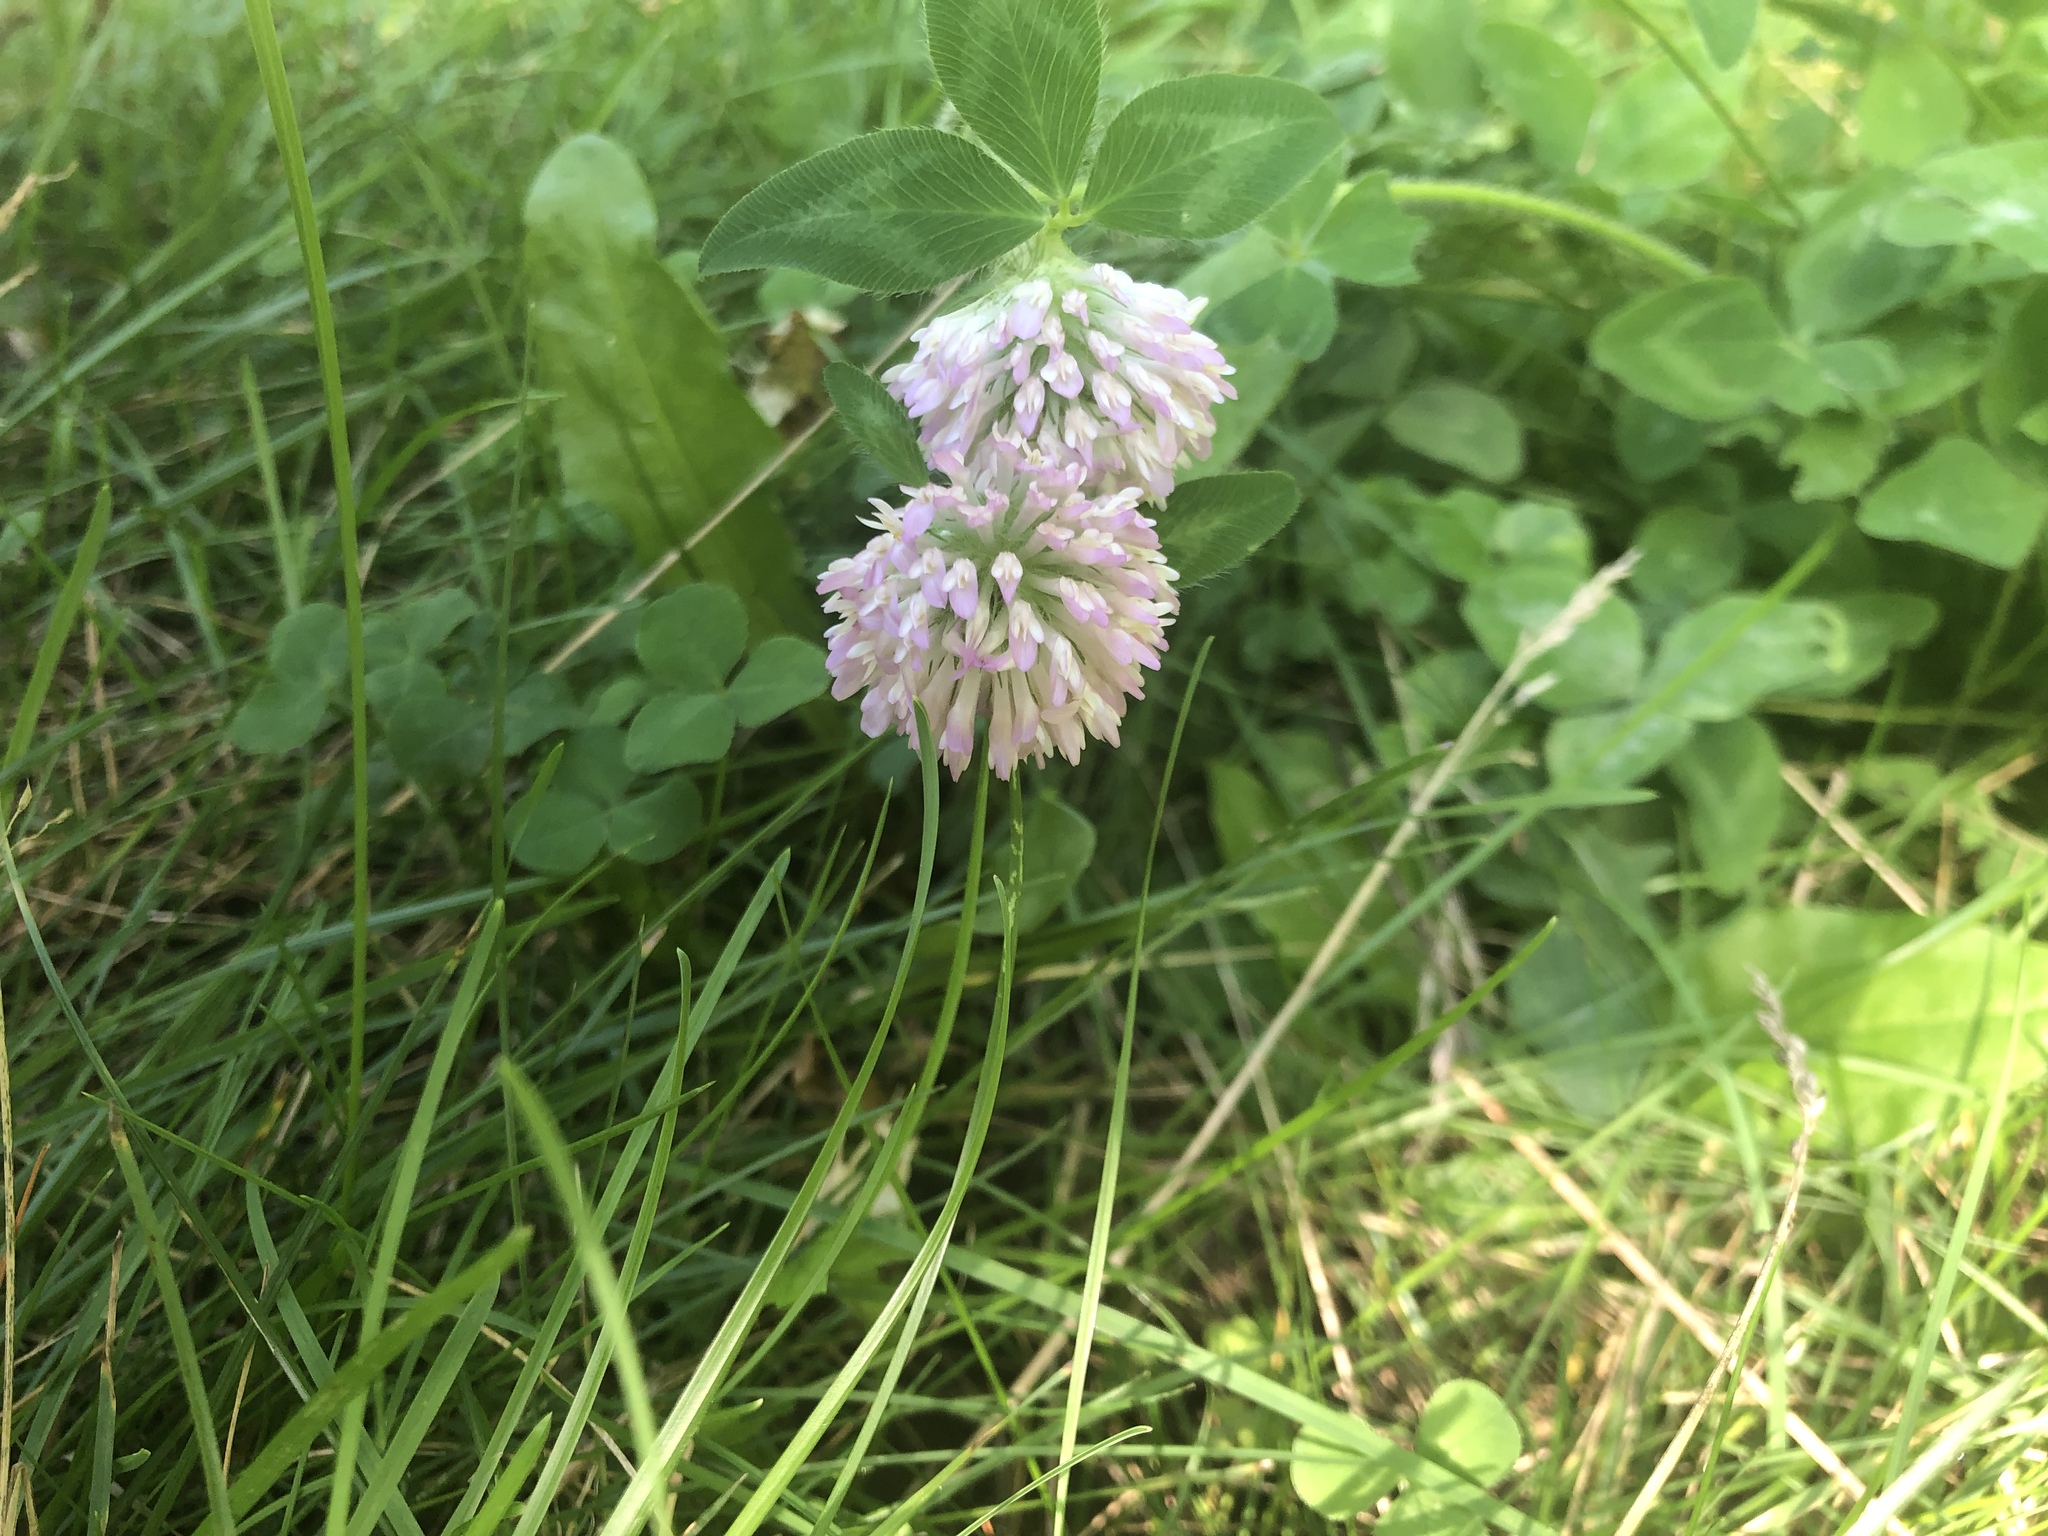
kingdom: Plantae
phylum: Tracheophyta
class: Magnoliopsida
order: Fabales
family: Fabaceae
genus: Trifolium
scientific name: Trifolium pratense
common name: Red clover
